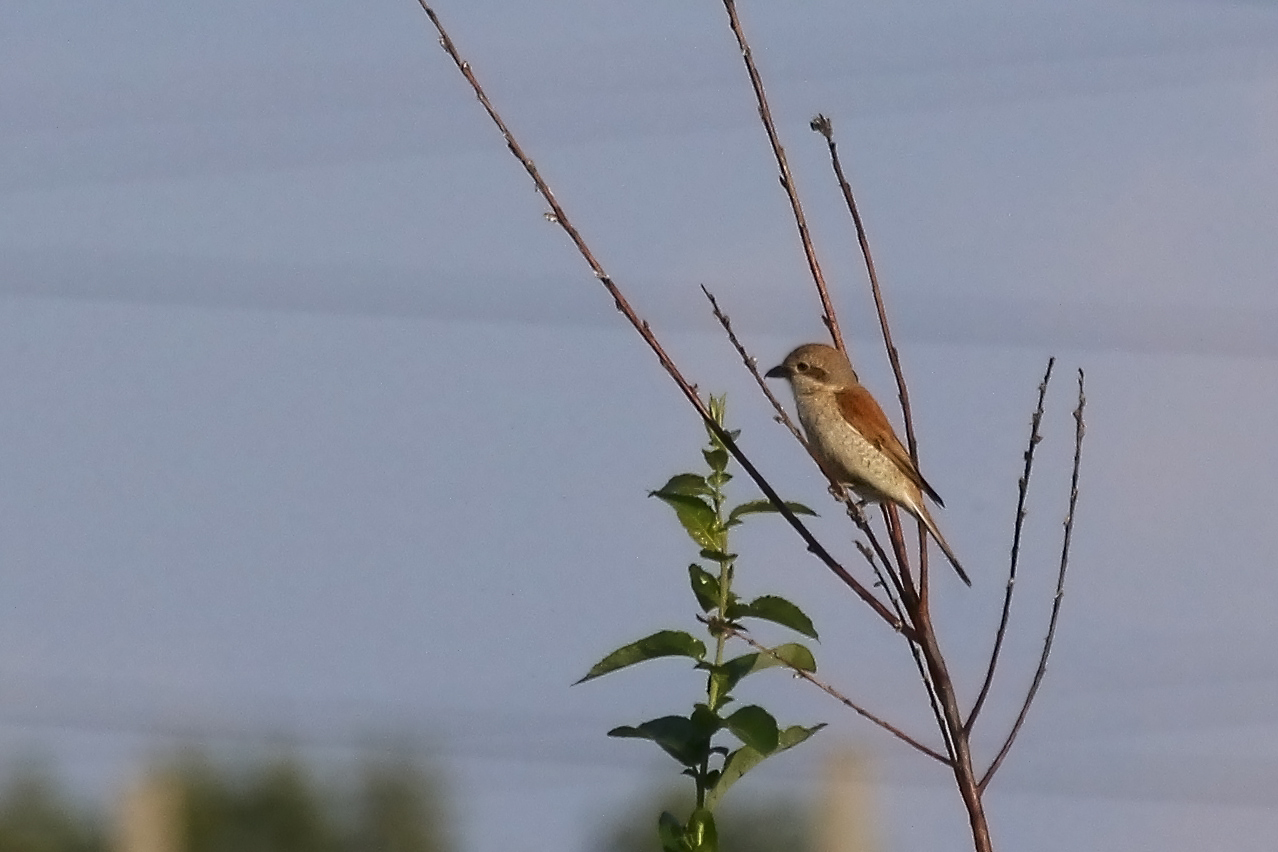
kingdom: Animalia
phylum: Chordata
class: Aves
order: Passeriformes
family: Laniidae
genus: Lanius
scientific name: Lanius collurio
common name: Red-backed shrike
